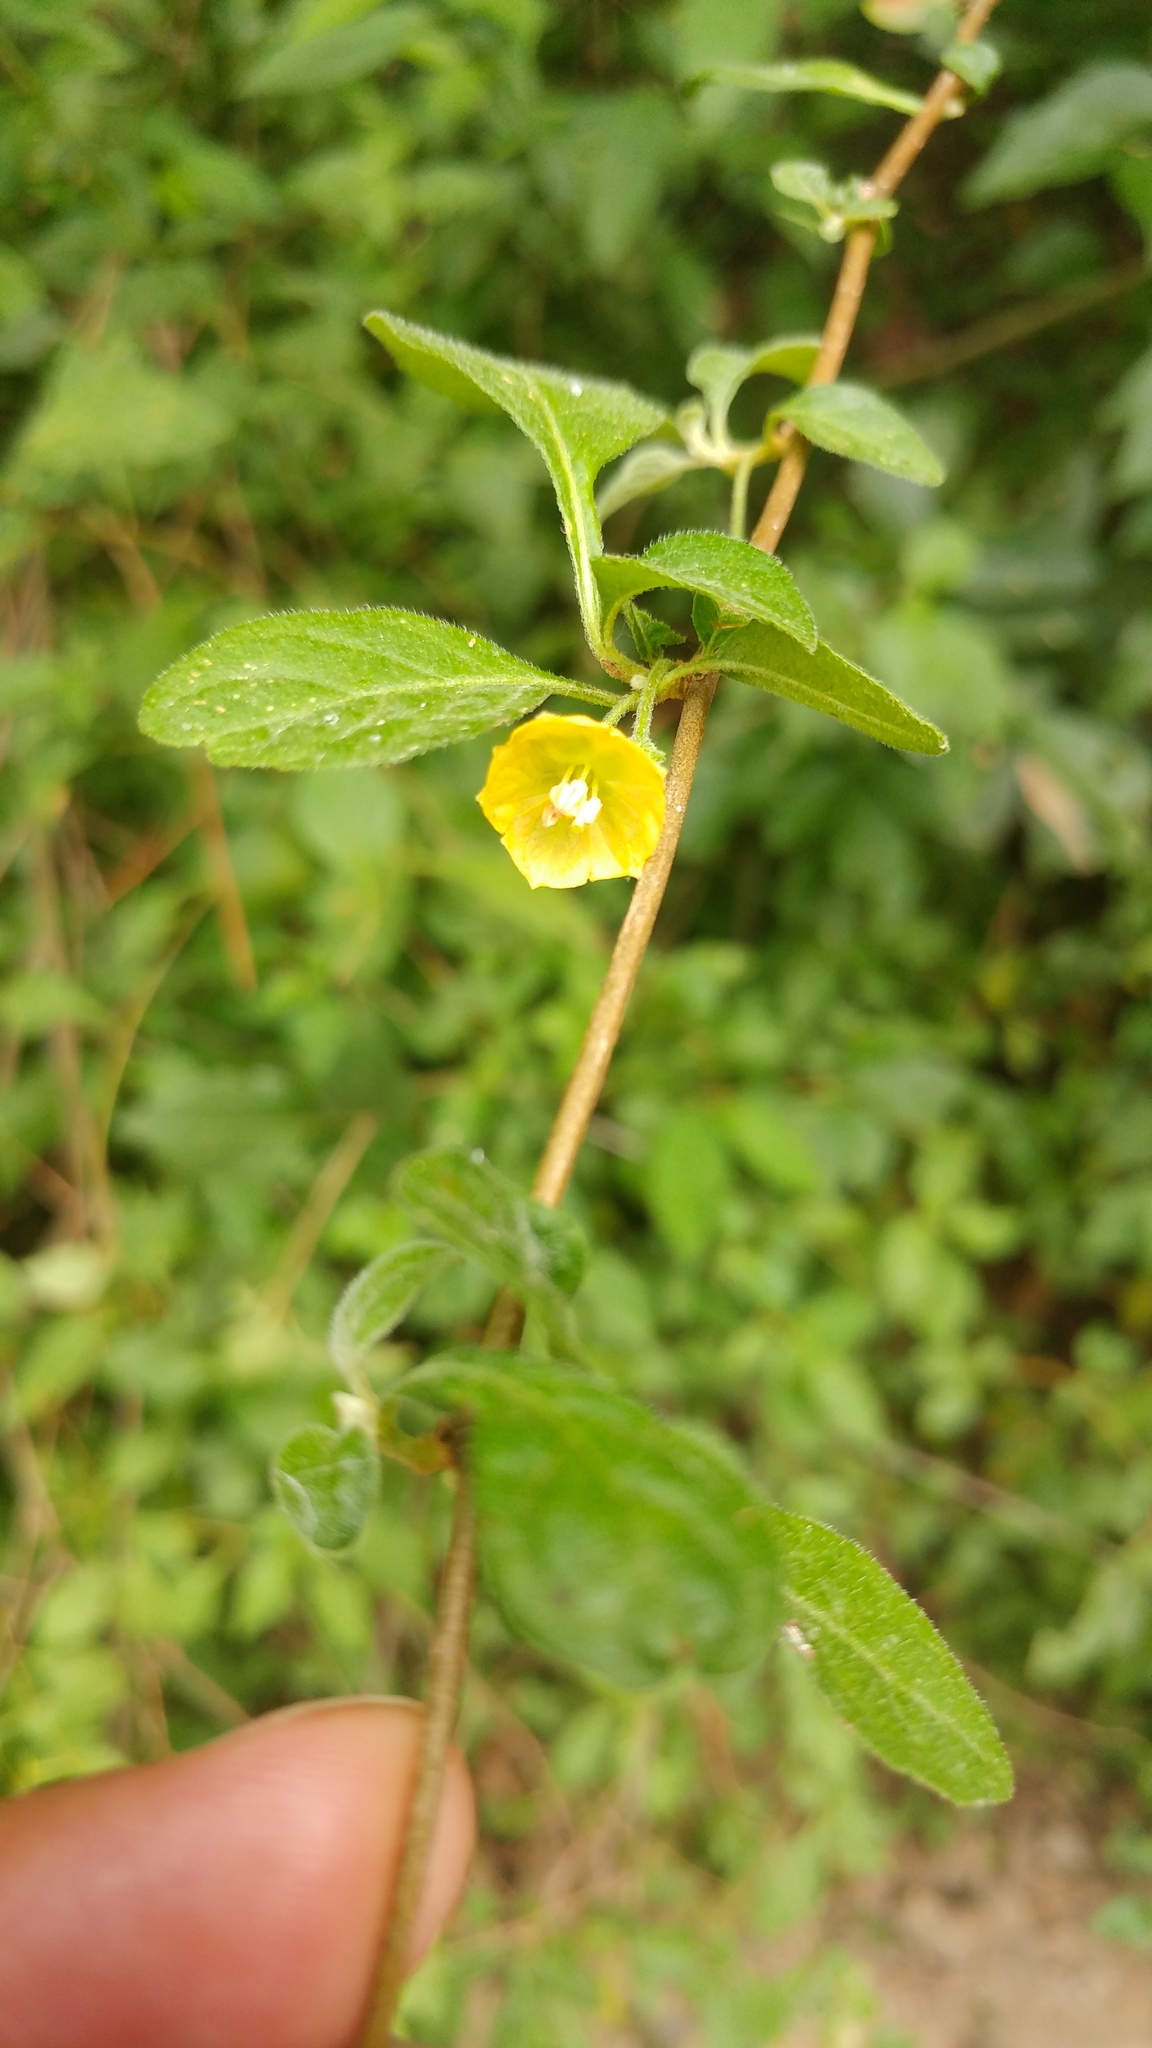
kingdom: Plantae
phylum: Tracheophyta
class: Magnoliopsida
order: Solanales
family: Solanaceae
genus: Capsicum
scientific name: Capsicum rhomboideum
